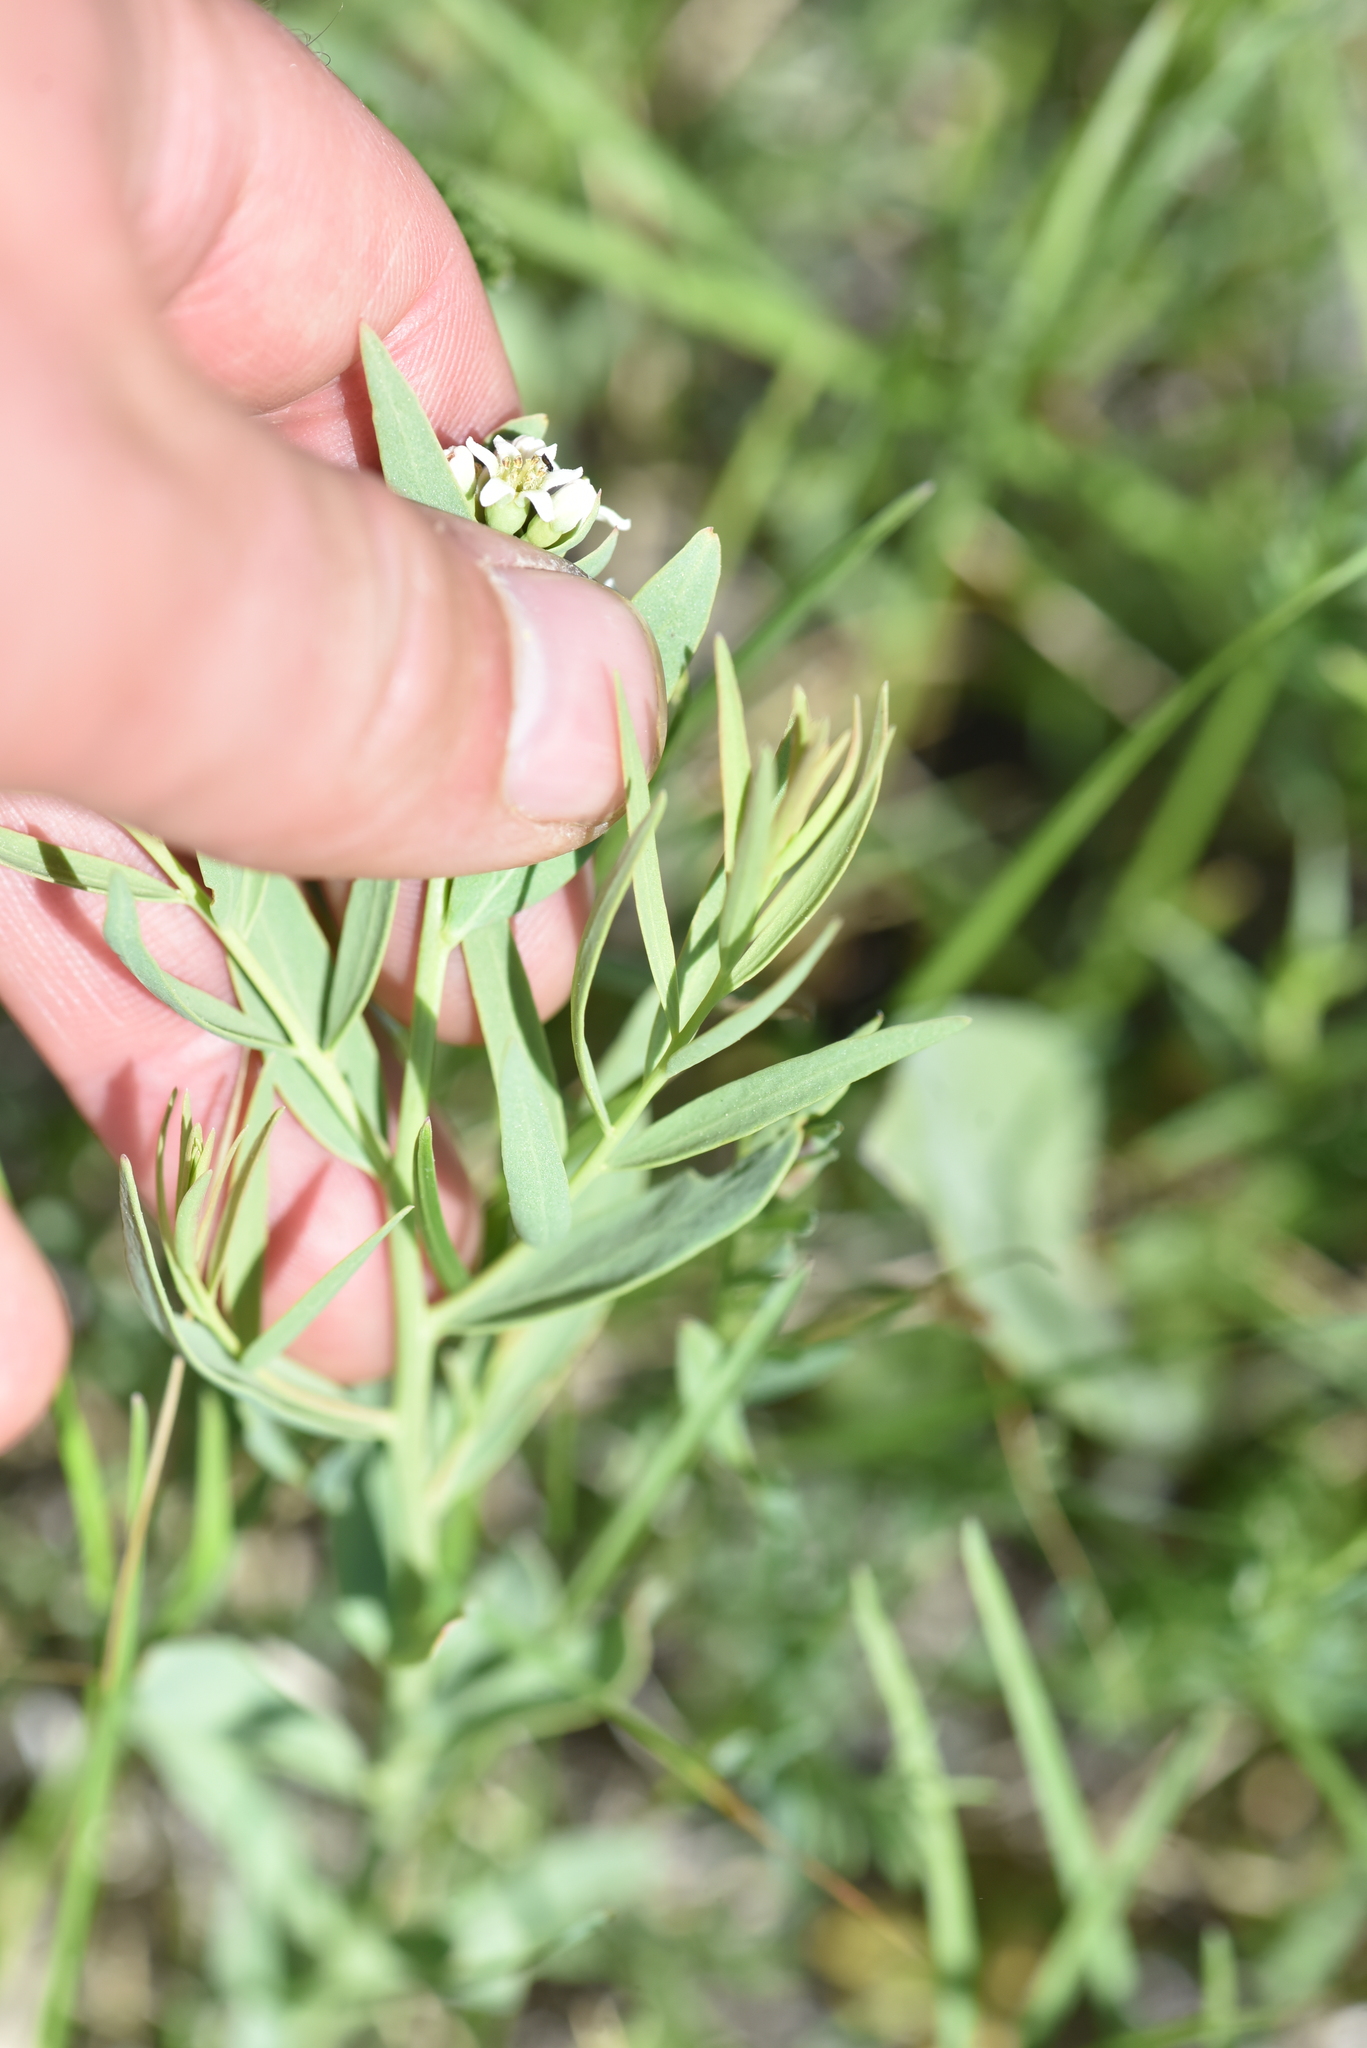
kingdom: Plantae
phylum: Tracheophyta
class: Magnoliopsida
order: Santalales
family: Comandraceae
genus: Comandra
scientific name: Comandra umbellata
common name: Bastard toadflax
